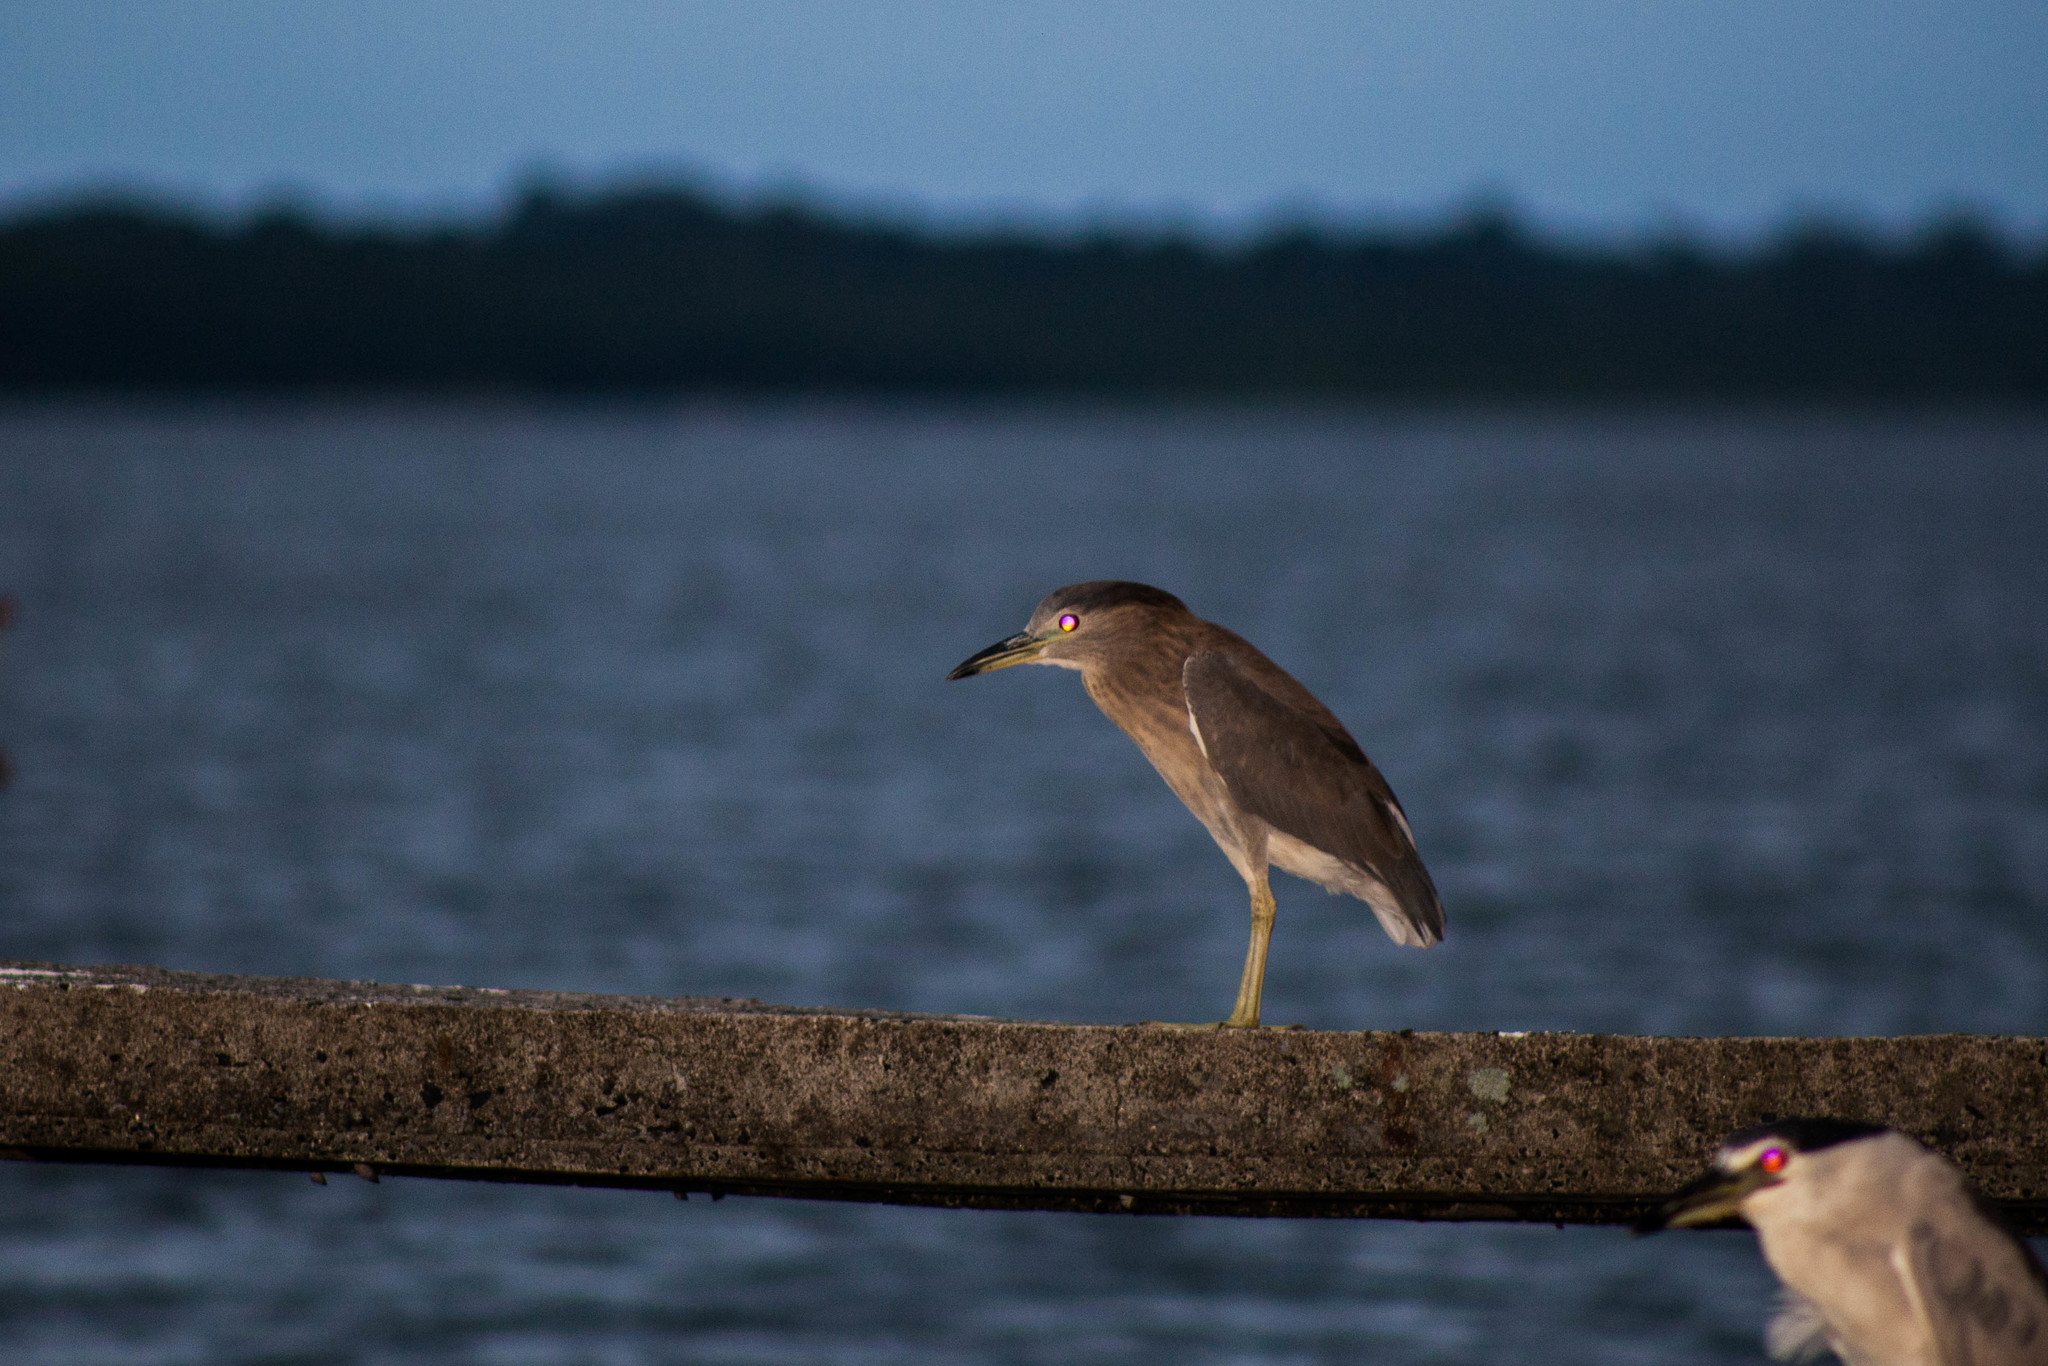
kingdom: Animalia
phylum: Chordata
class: Aves
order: Pelecaniformes
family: Ardeidae
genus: Nycticorax
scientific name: Nycticorax nycticorax
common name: Black-crowned night heron
